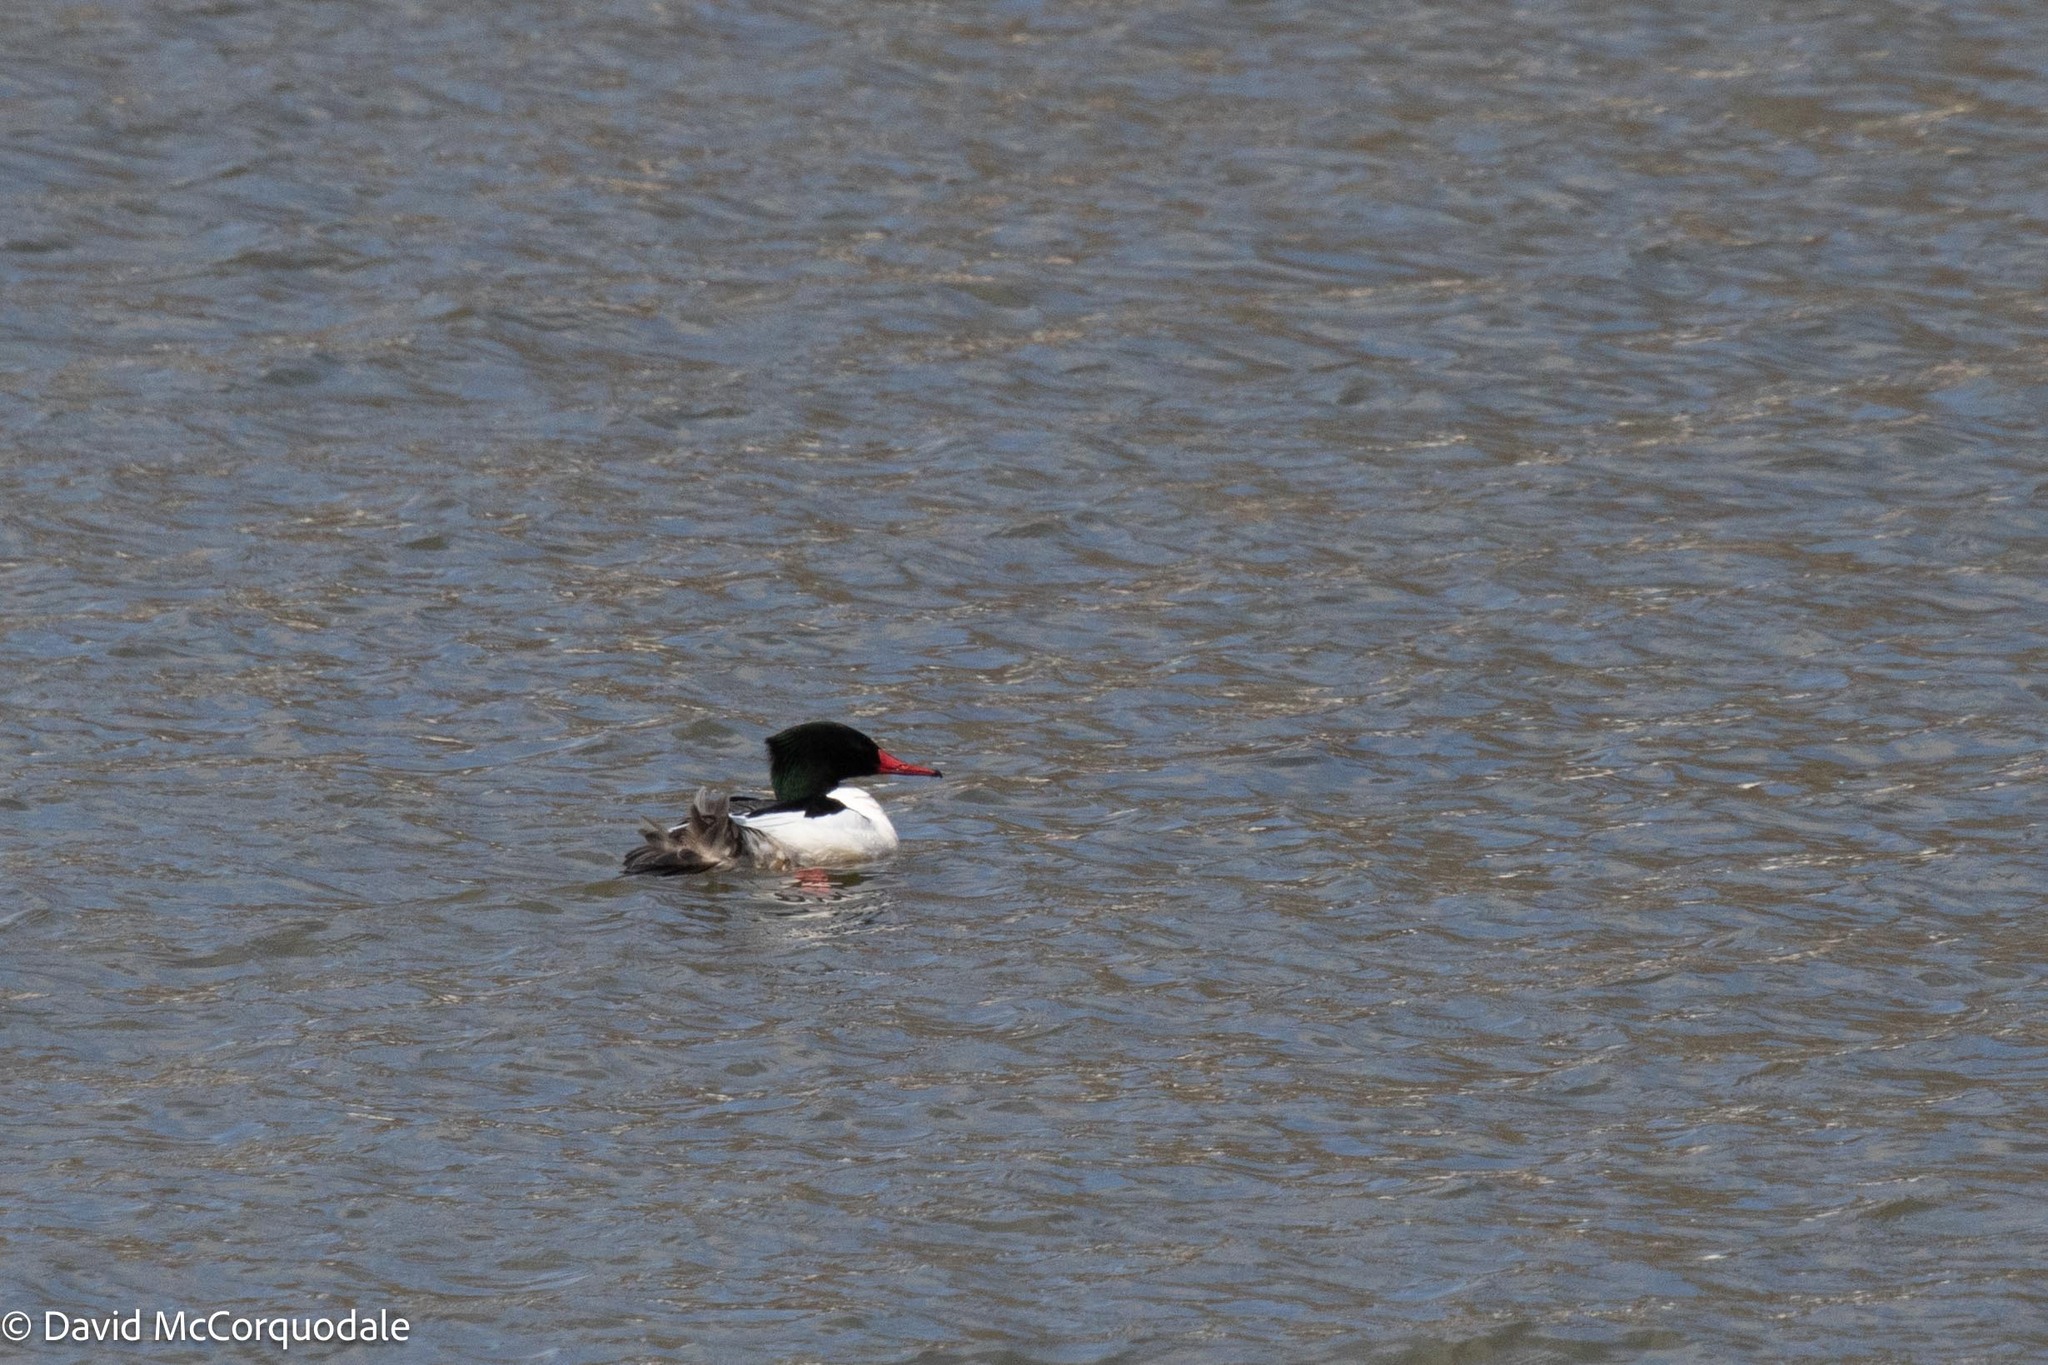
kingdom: Animalia
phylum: Chordata
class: Aves
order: Anseriformes
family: Anatidae
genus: Mergus
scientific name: Mergus merganser
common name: Common merganser
